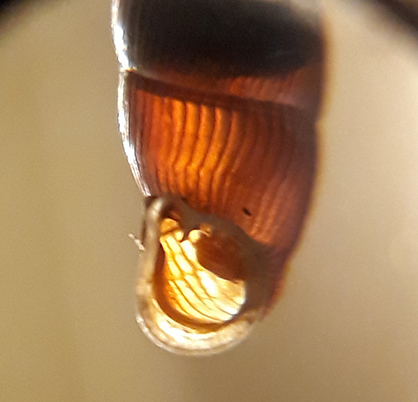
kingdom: Animalia
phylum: Mollusca
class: Gastropoda
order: Stylommatophora
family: Clausiliidae
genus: Macrogastra
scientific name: Macrogastra plicatula
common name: Plicate door snail
